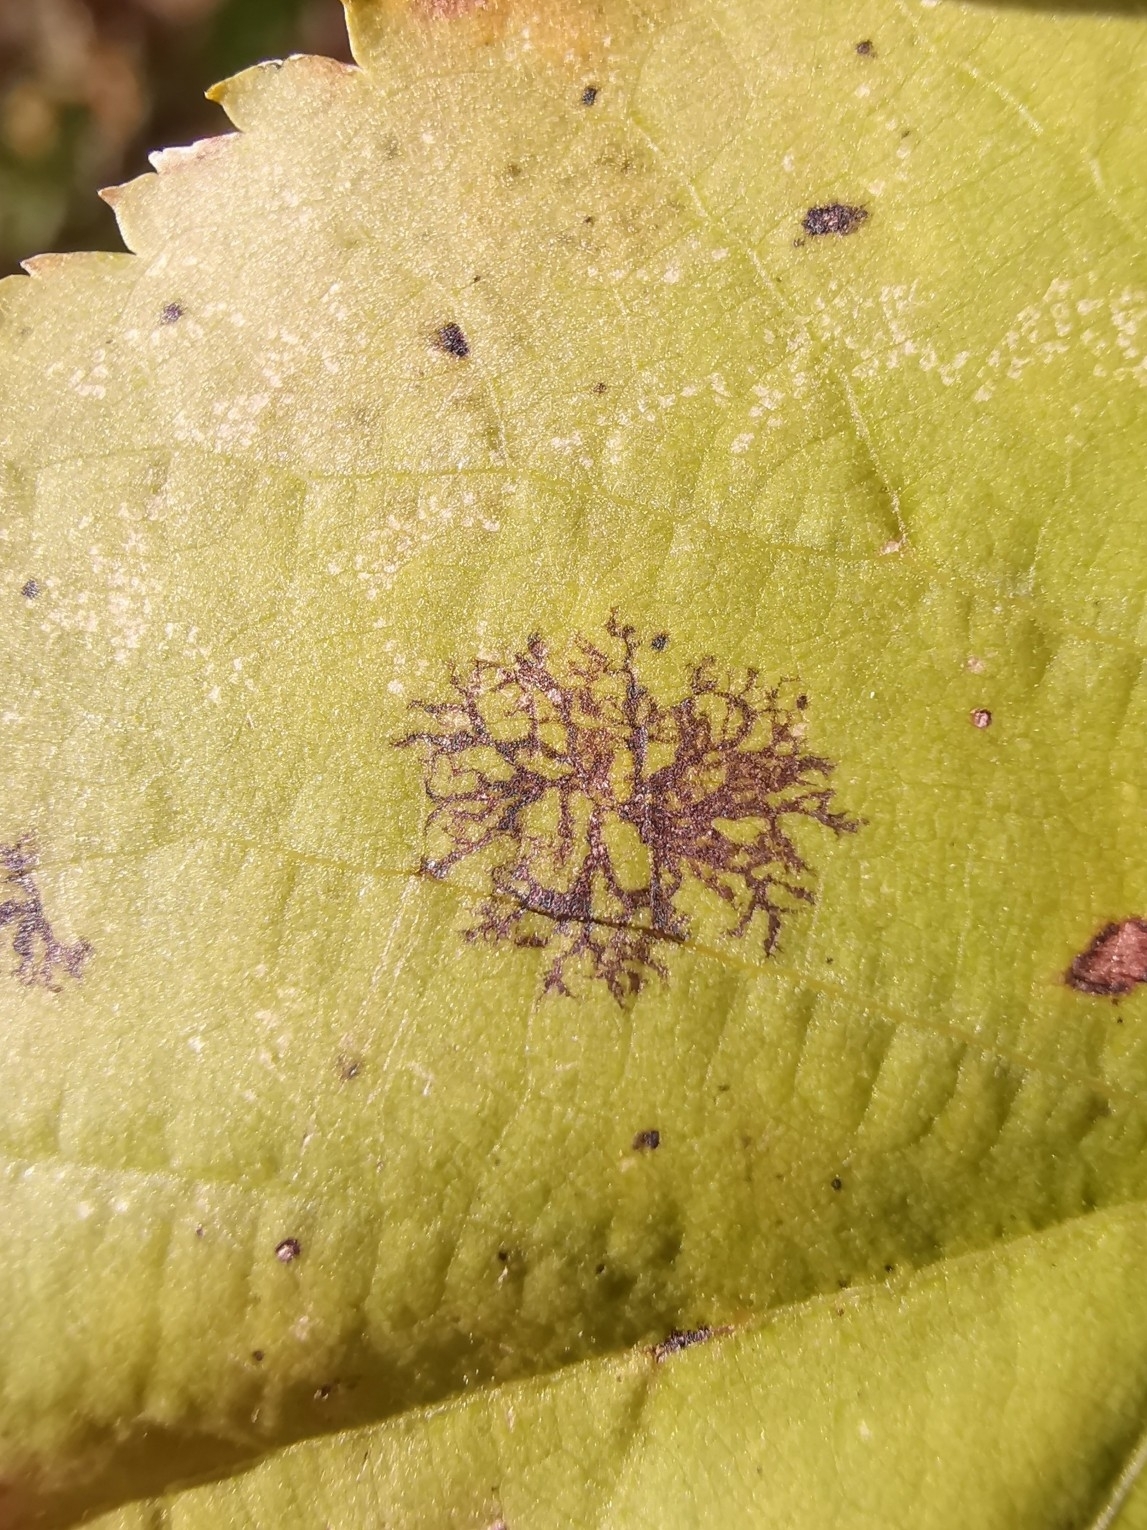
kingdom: Fungi
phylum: Ascomycota
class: Dothideomycetes
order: Pleosporales
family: Didymosphaeriaceae
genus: Paraconiothyrium
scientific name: Paraconiothyrium tiliae
